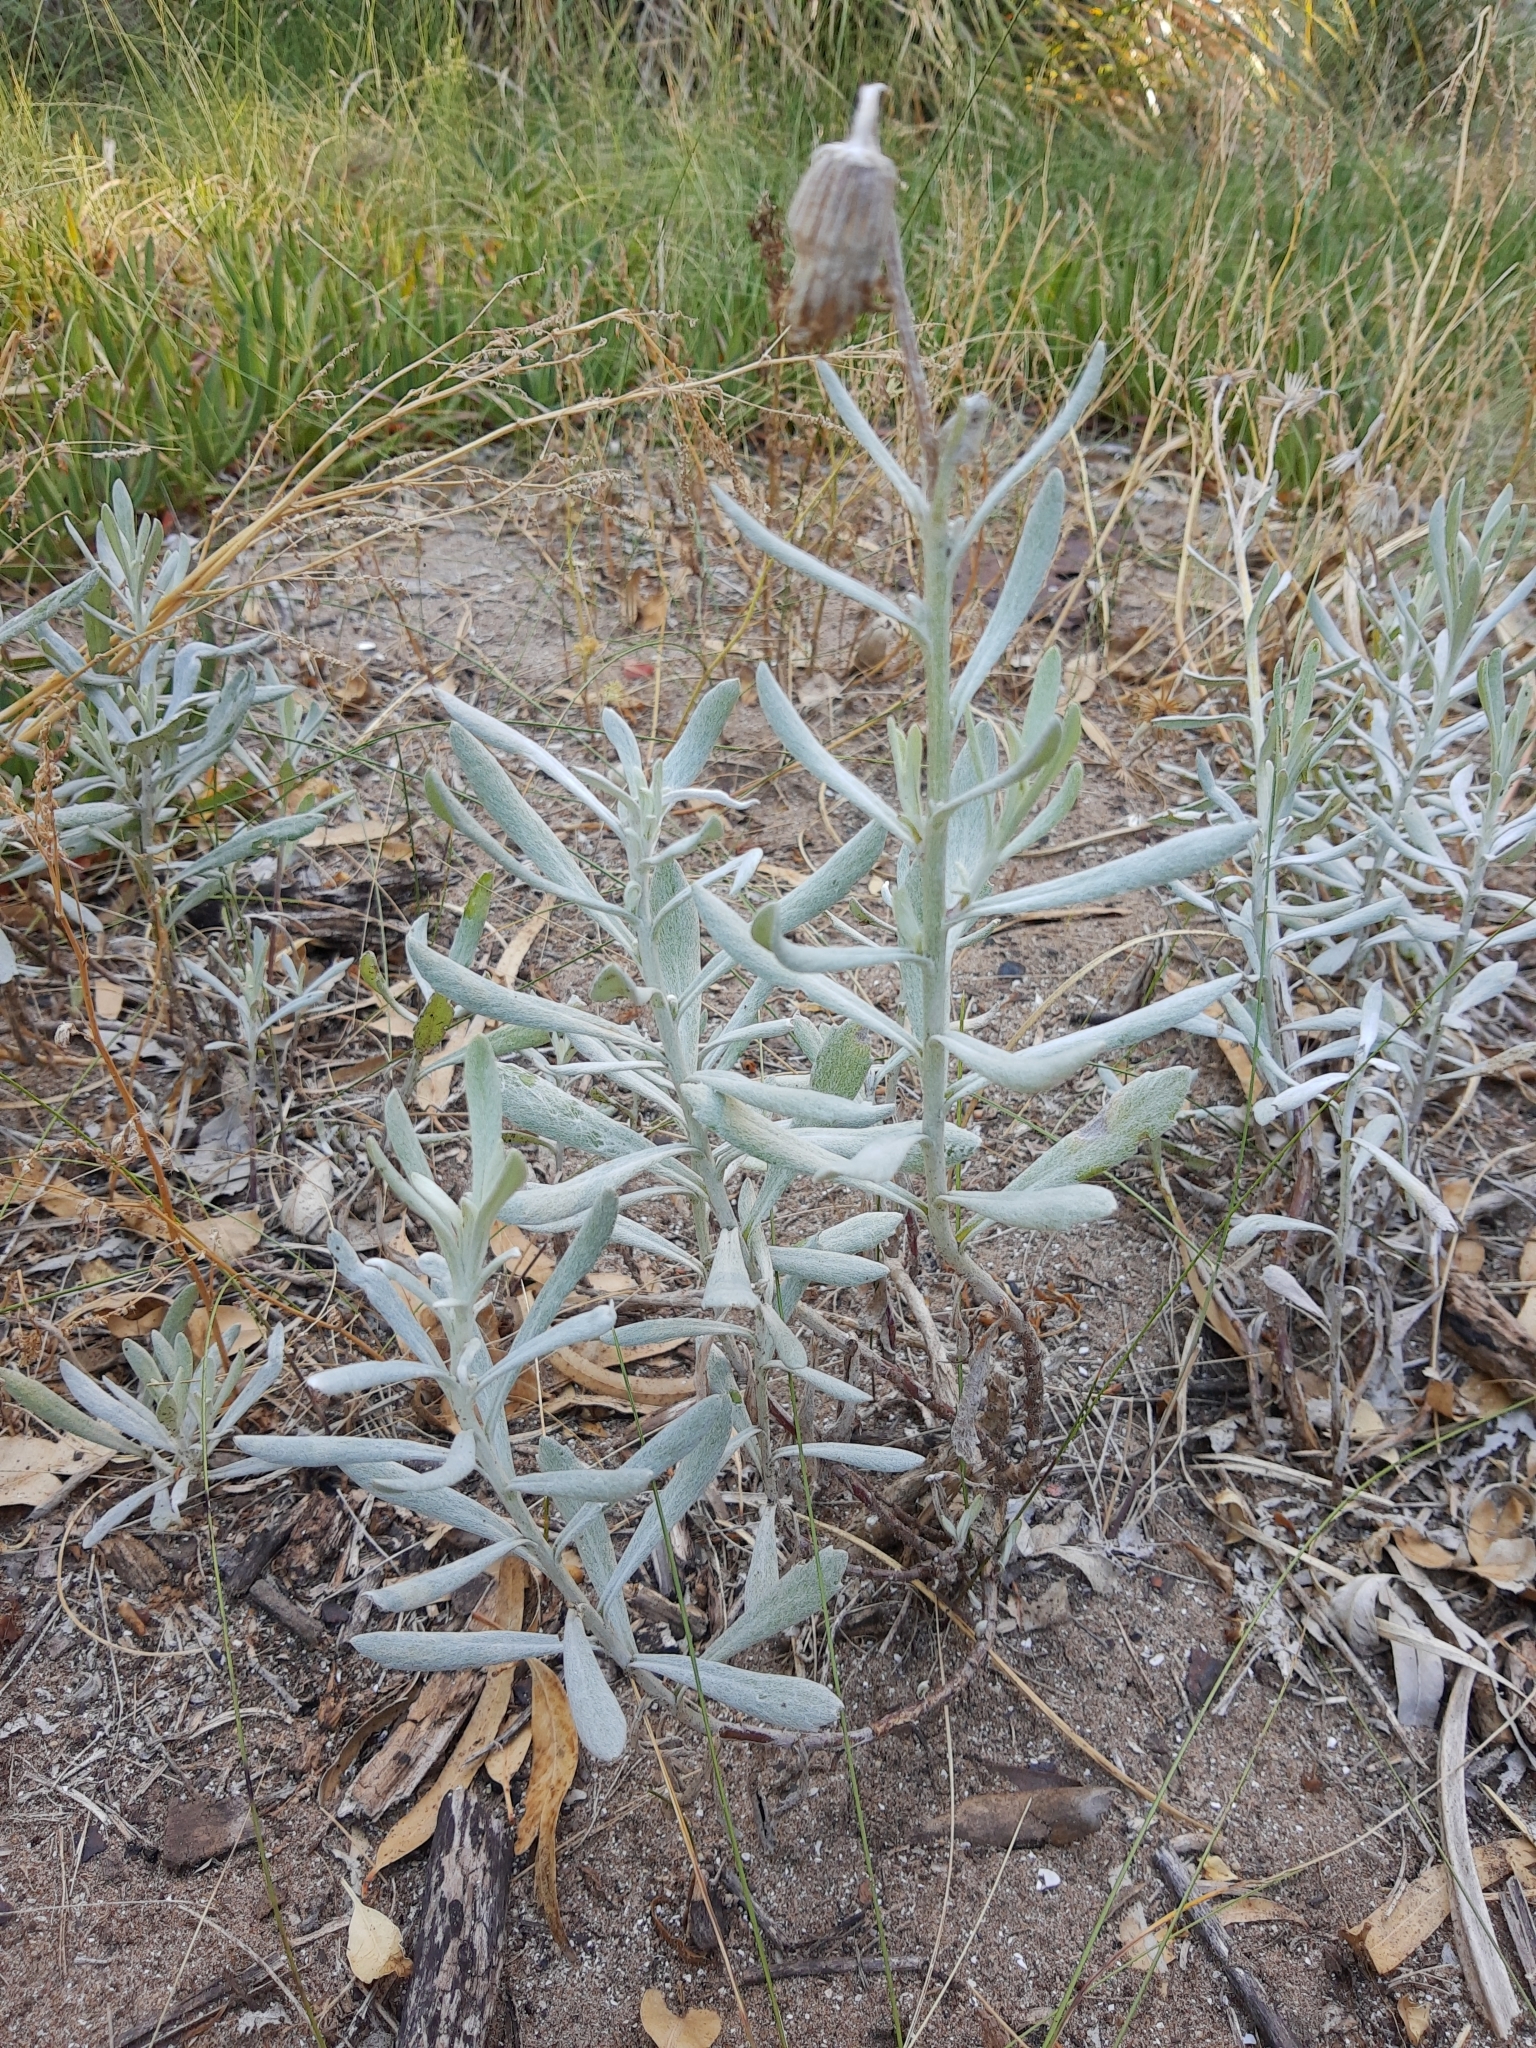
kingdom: Plantae
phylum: Tracheophyta
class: Magnoliopsida
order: Asterales
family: Asteraceae
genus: Senecio
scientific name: Senecio crassiflorus
